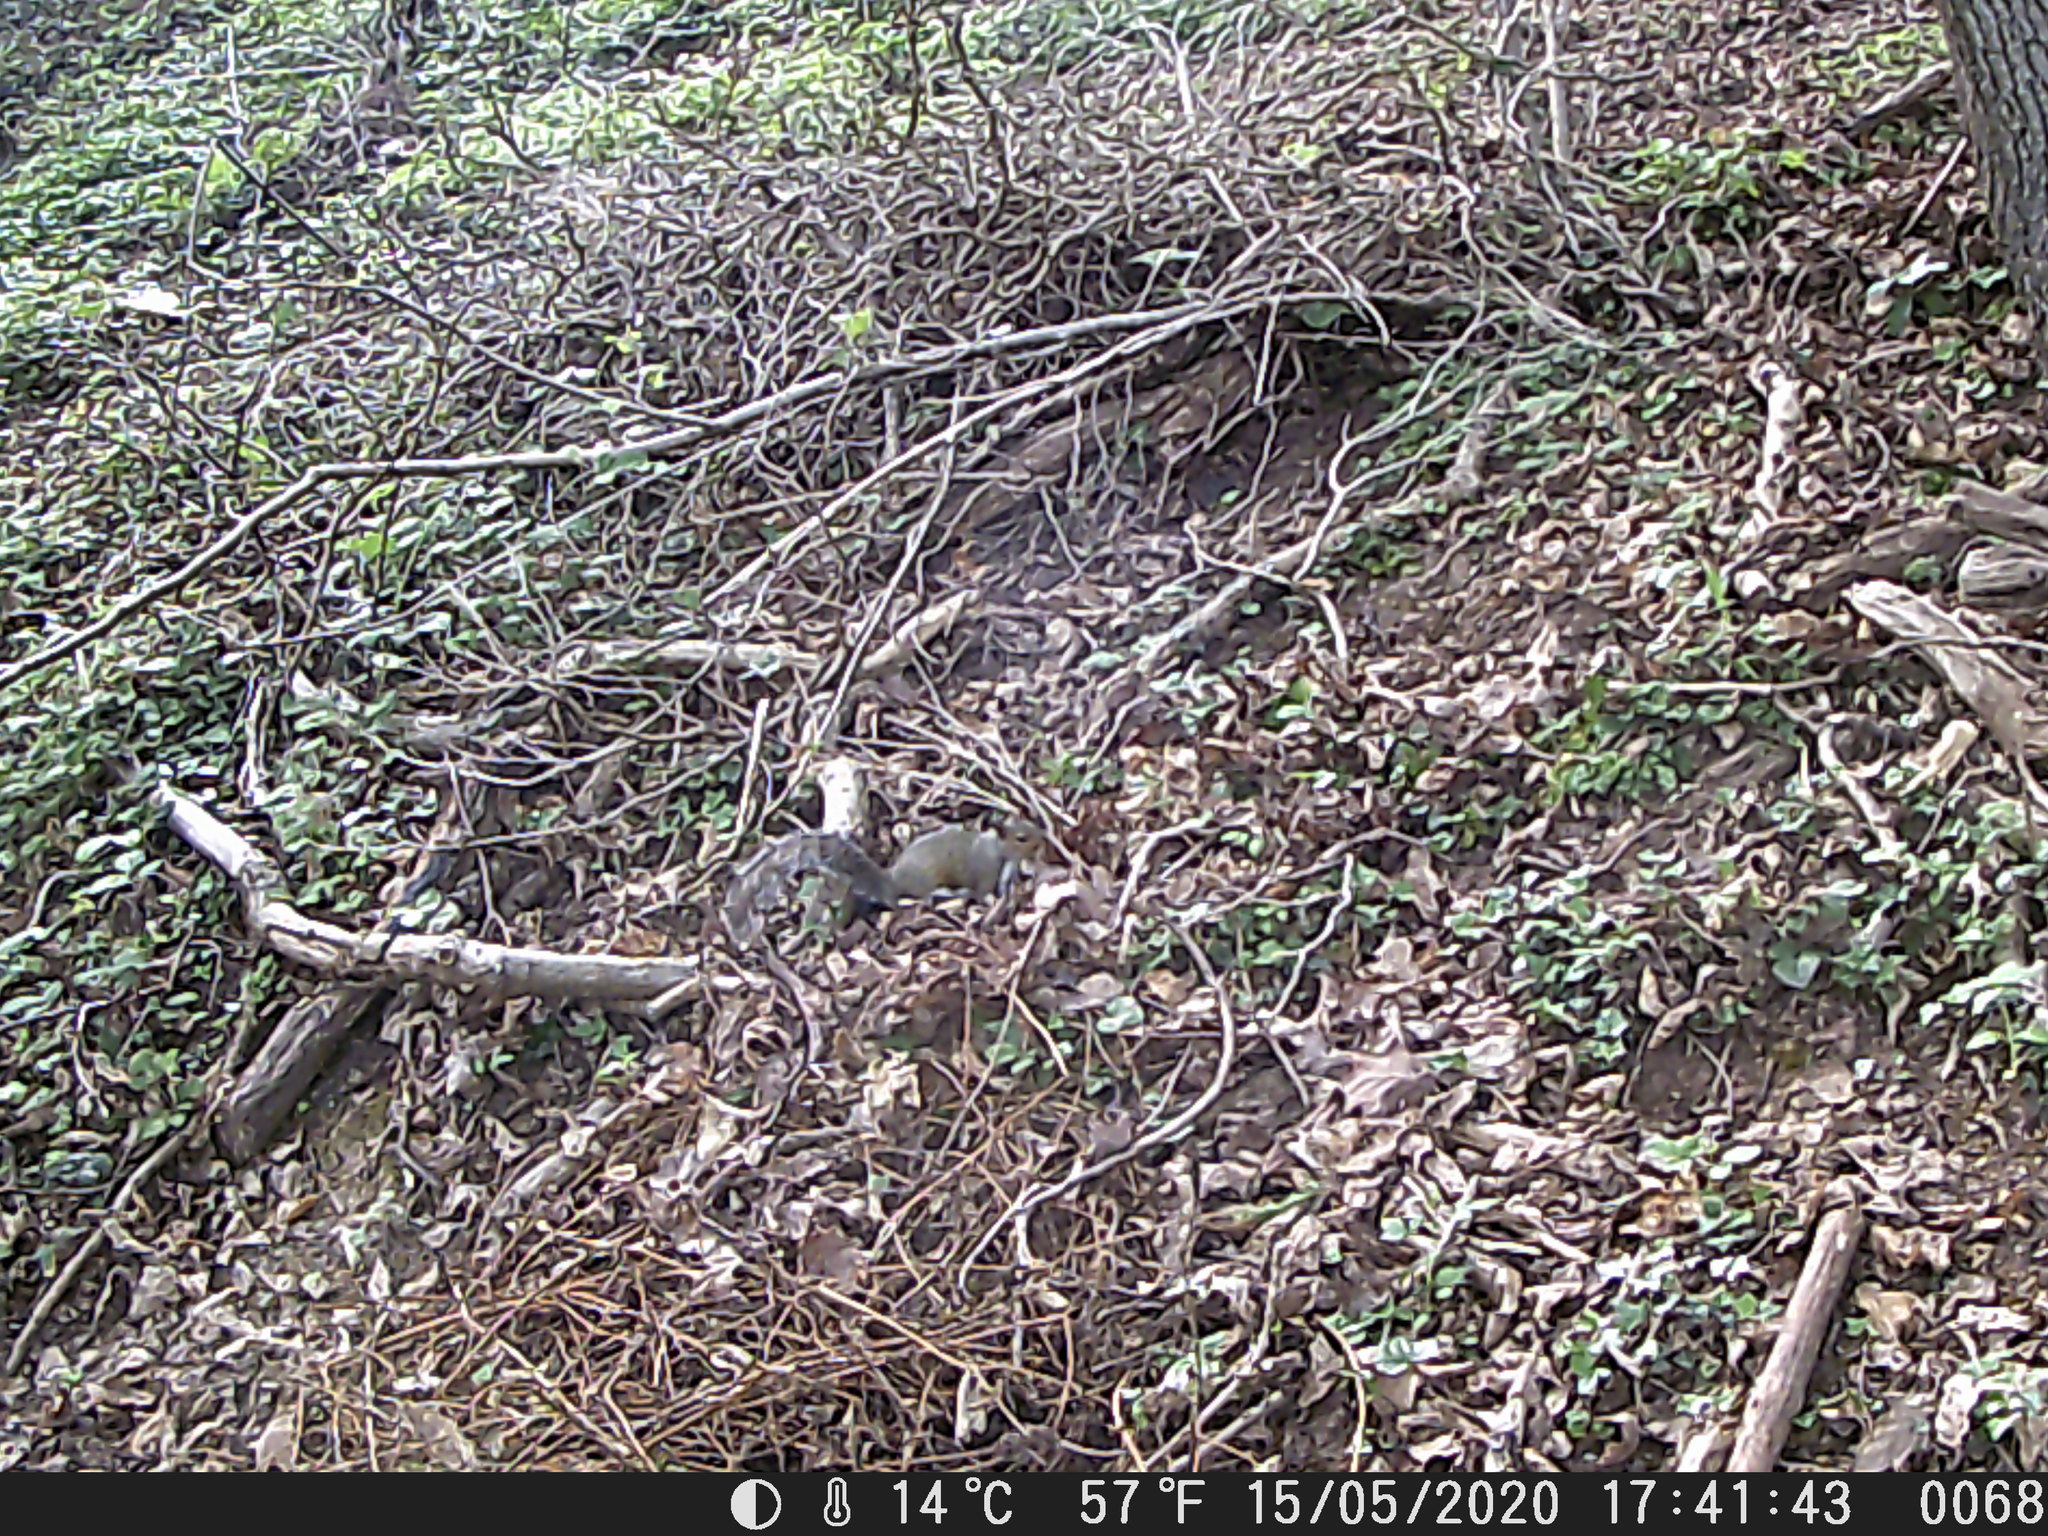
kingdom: Animalia
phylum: Chordata
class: Mammalia
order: Rodentia
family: Sciuridae
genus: Sciurus
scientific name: Sciurus carolinensis
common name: Eastern gray squirrel
